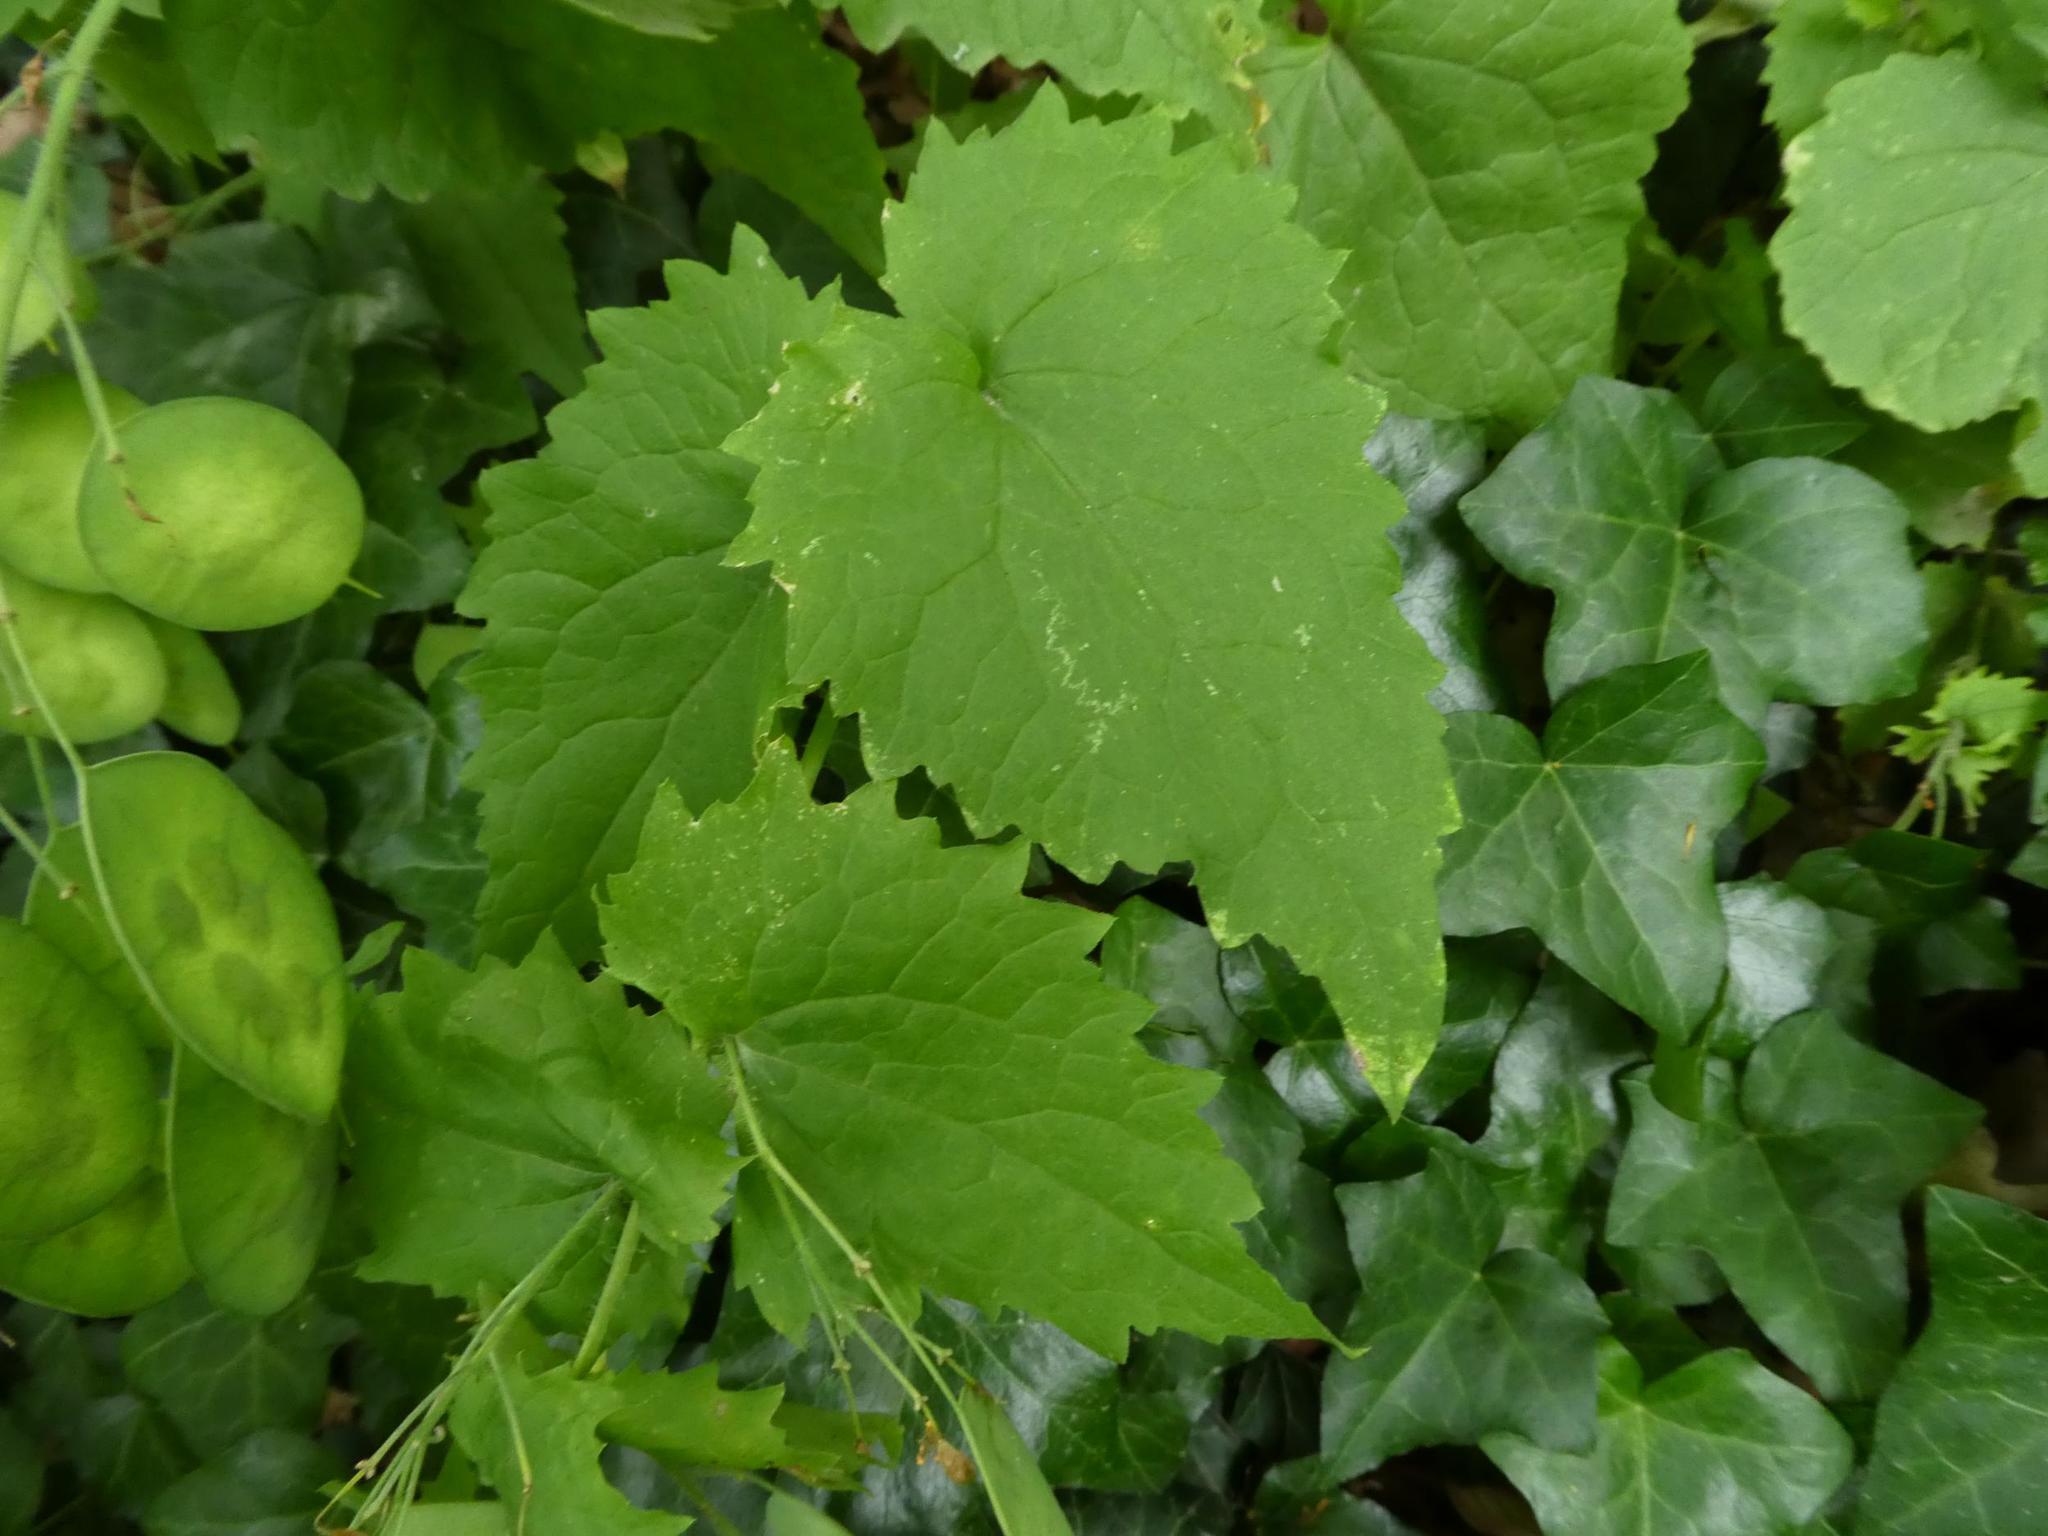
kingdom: Plantae
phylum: Tracheophyta
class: Magnoliopsida
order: Brassicales
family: Brassicaceae
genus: Lunaria
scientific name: Lunaria annua
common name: Honesty
